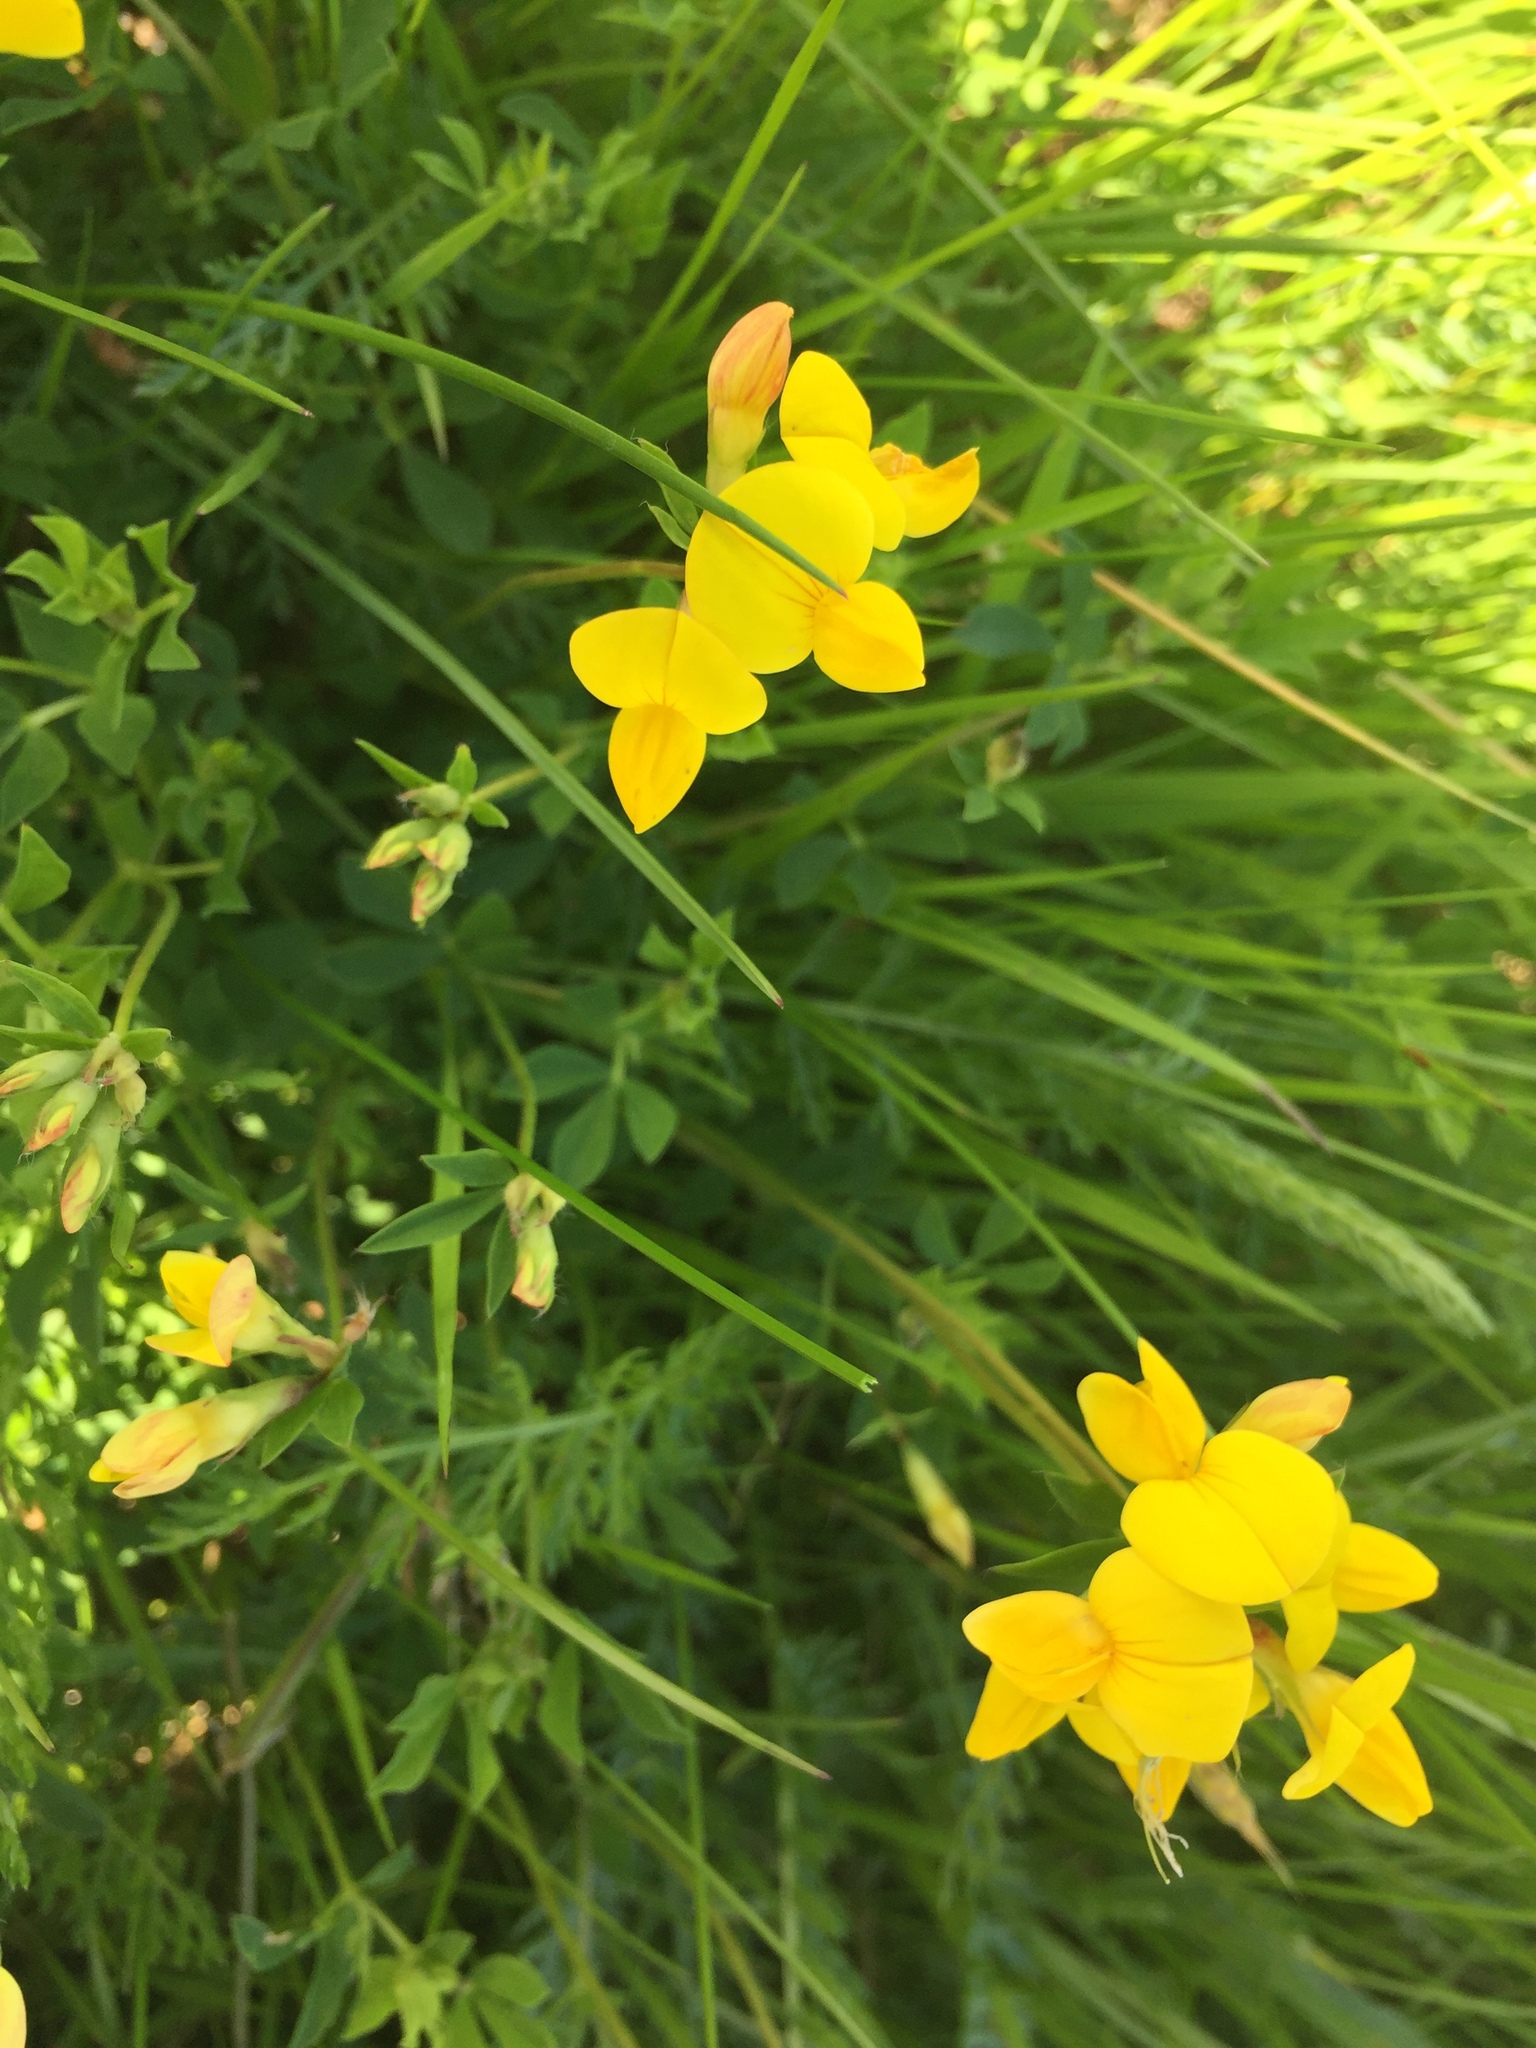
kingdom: Plantae
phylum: Tracheophyta
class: Magnoliopsida
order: Fabales
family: Fabaceae
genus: Lotus
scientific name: Lotus corniculatus
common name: Common bird's-foot-trefoil
